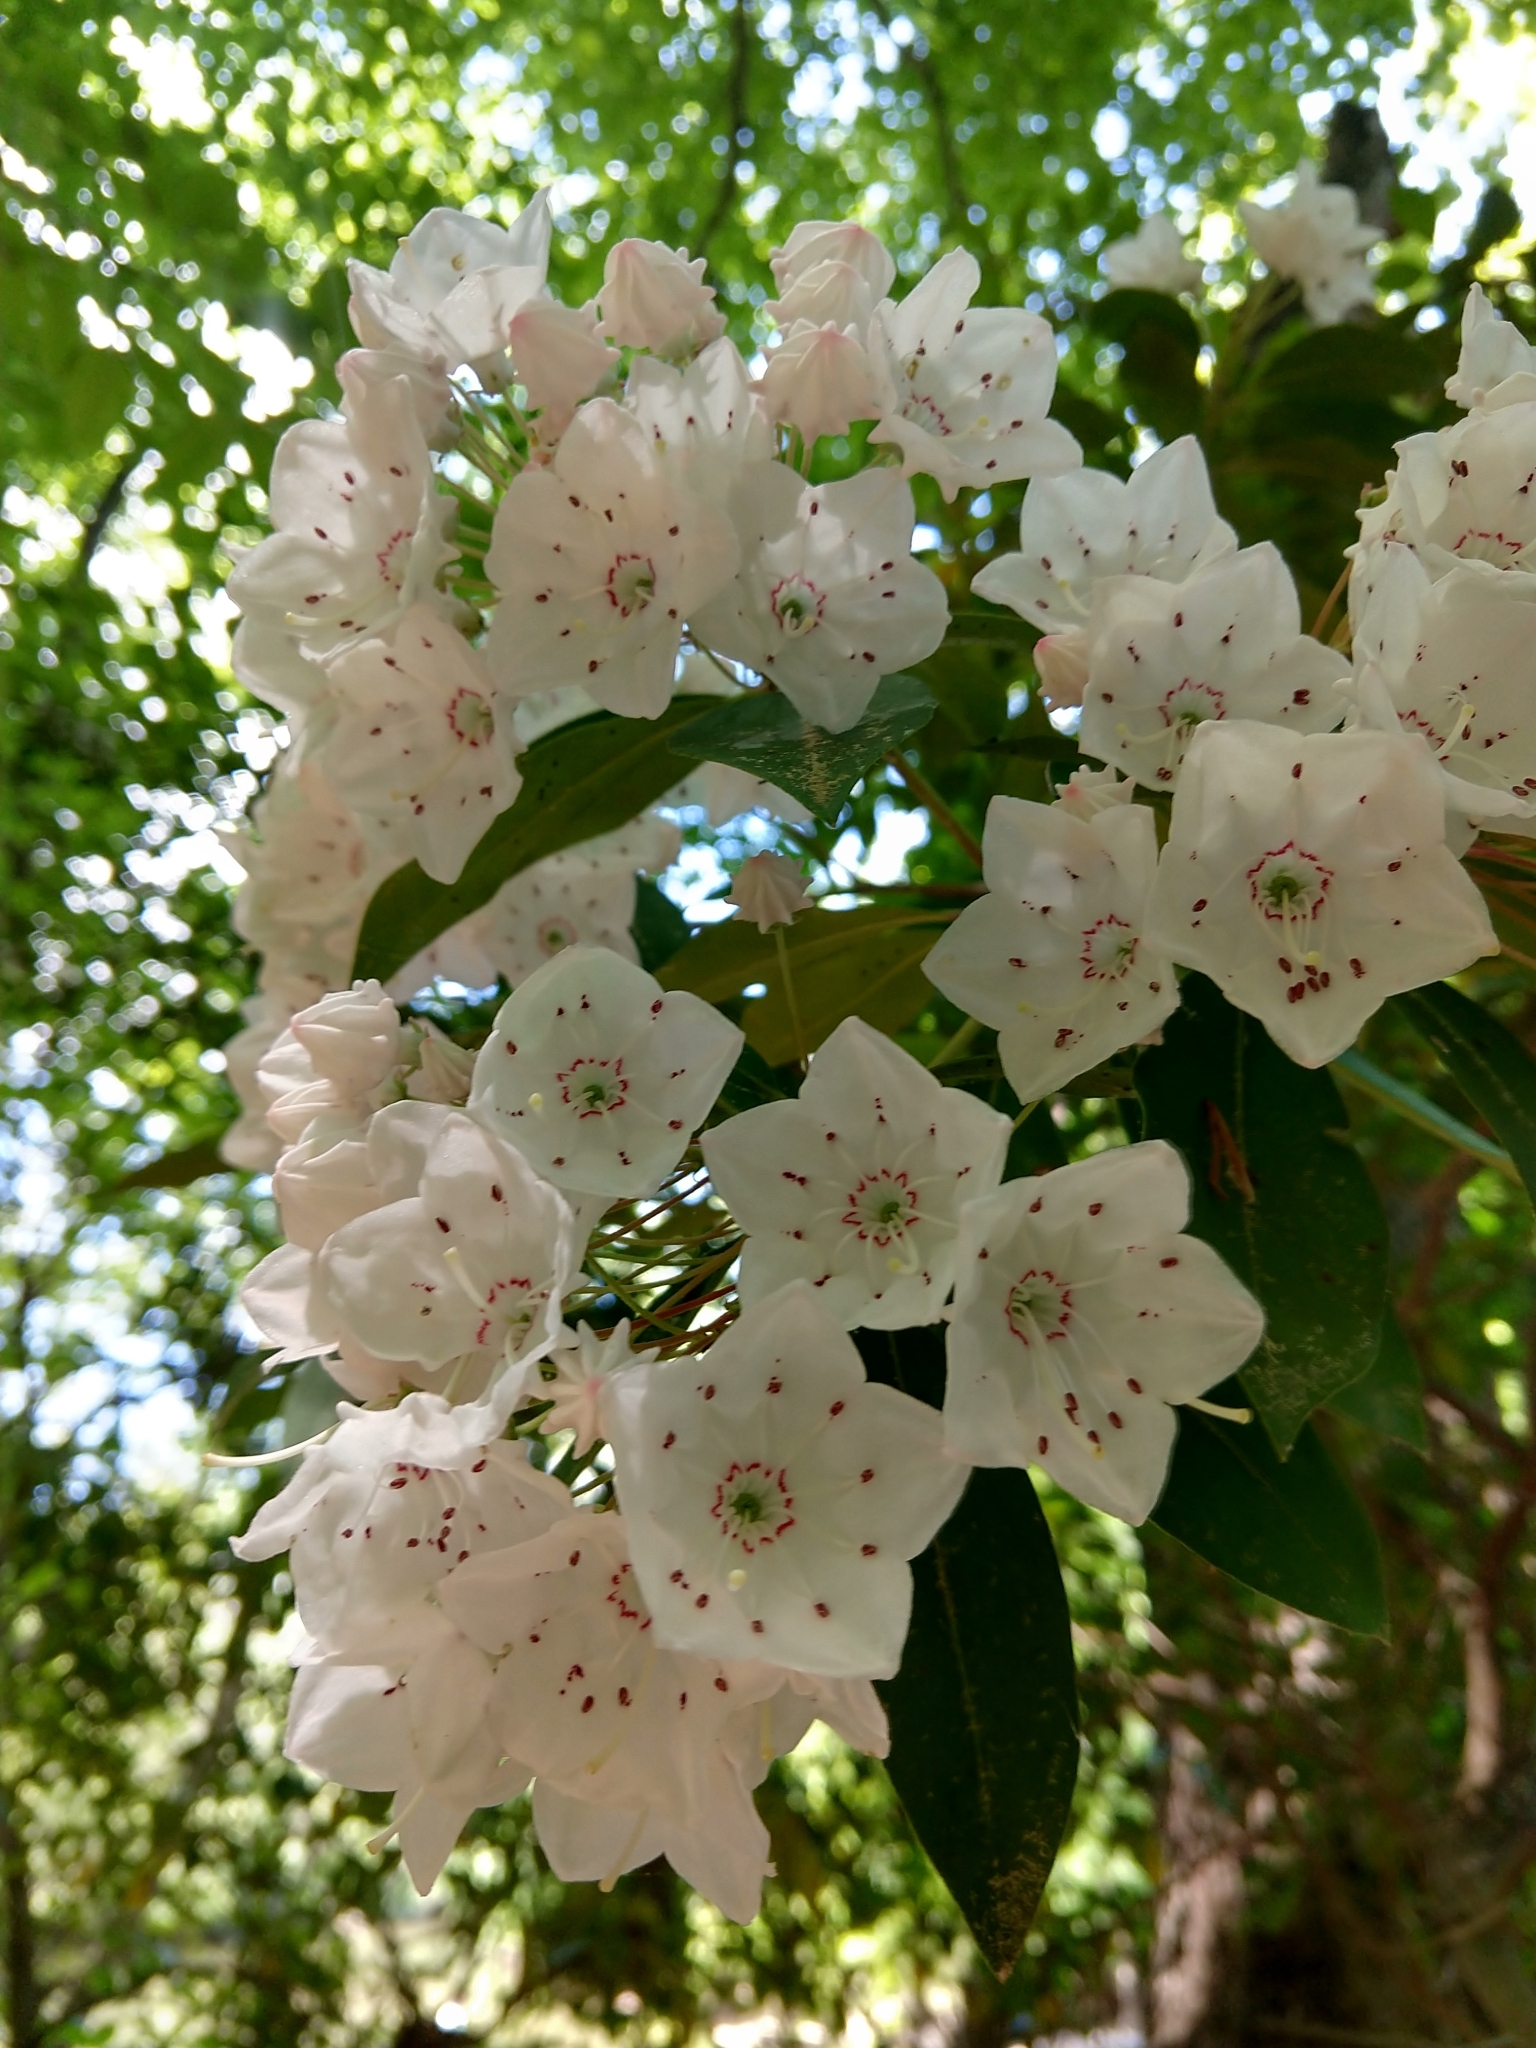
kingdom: Plantae
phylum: Tracheophyta
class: Magnoliopsida
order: Ericales
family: Ericaceae
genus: Kalmia
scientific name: Kalmia latifolia
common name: Mountain-laurel
